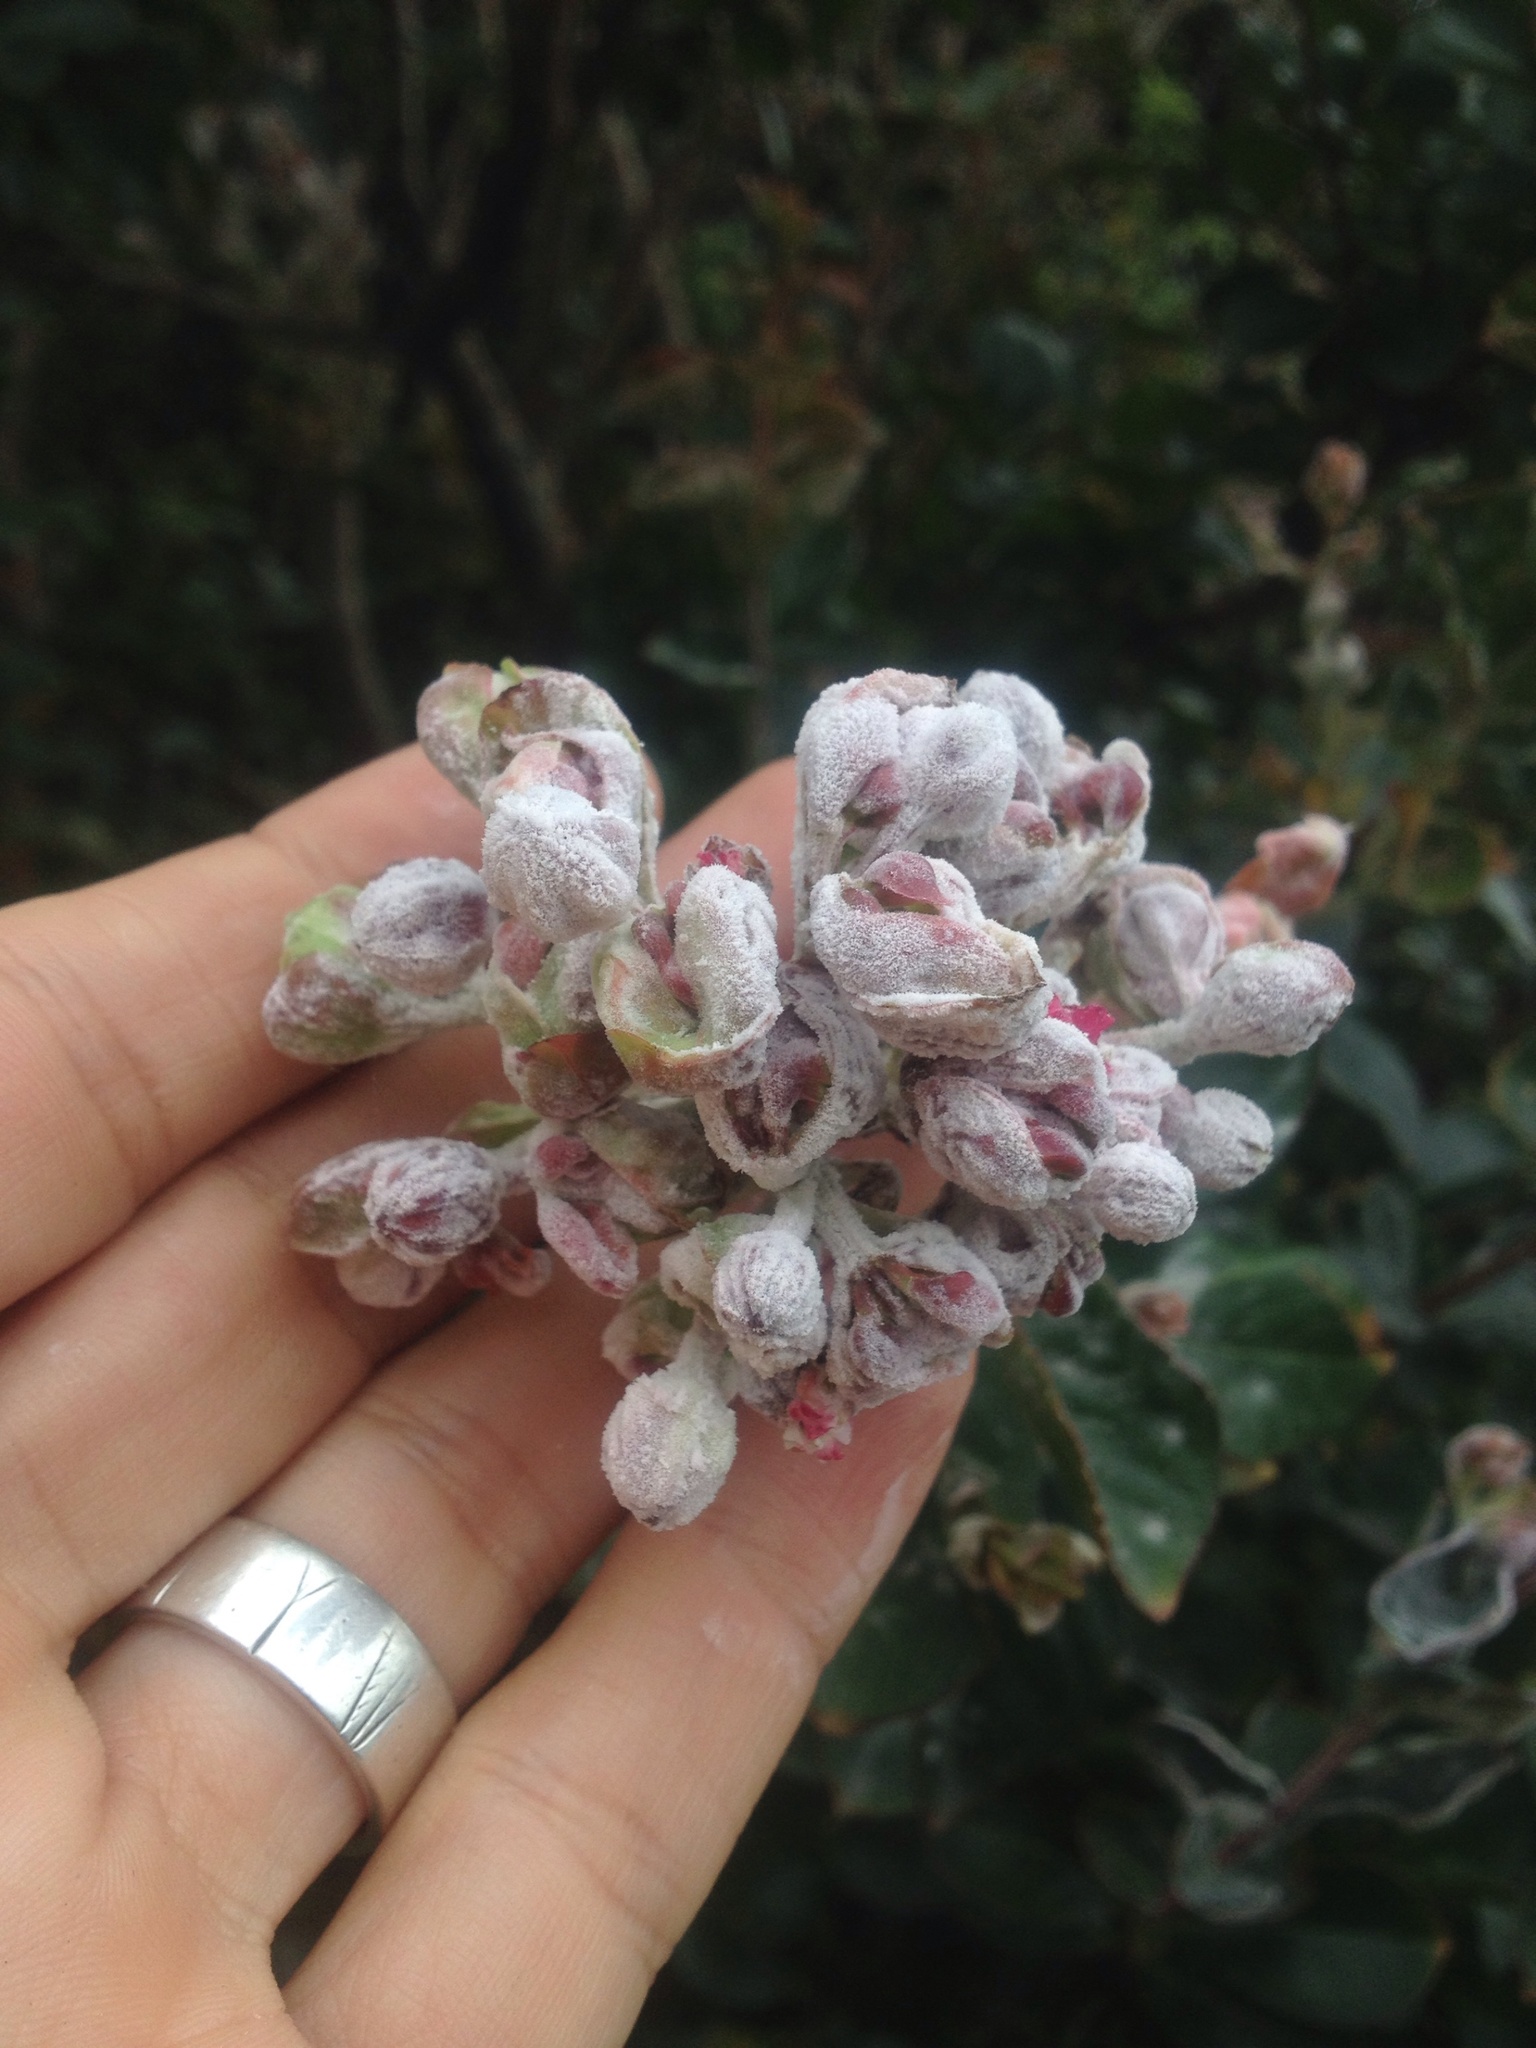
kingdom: Fungi
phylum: Ascomycota
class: Leotiomycetes
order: Helotiales
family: Erysiphaceae
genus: Erysiphe
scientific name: Erysiphe australiana
